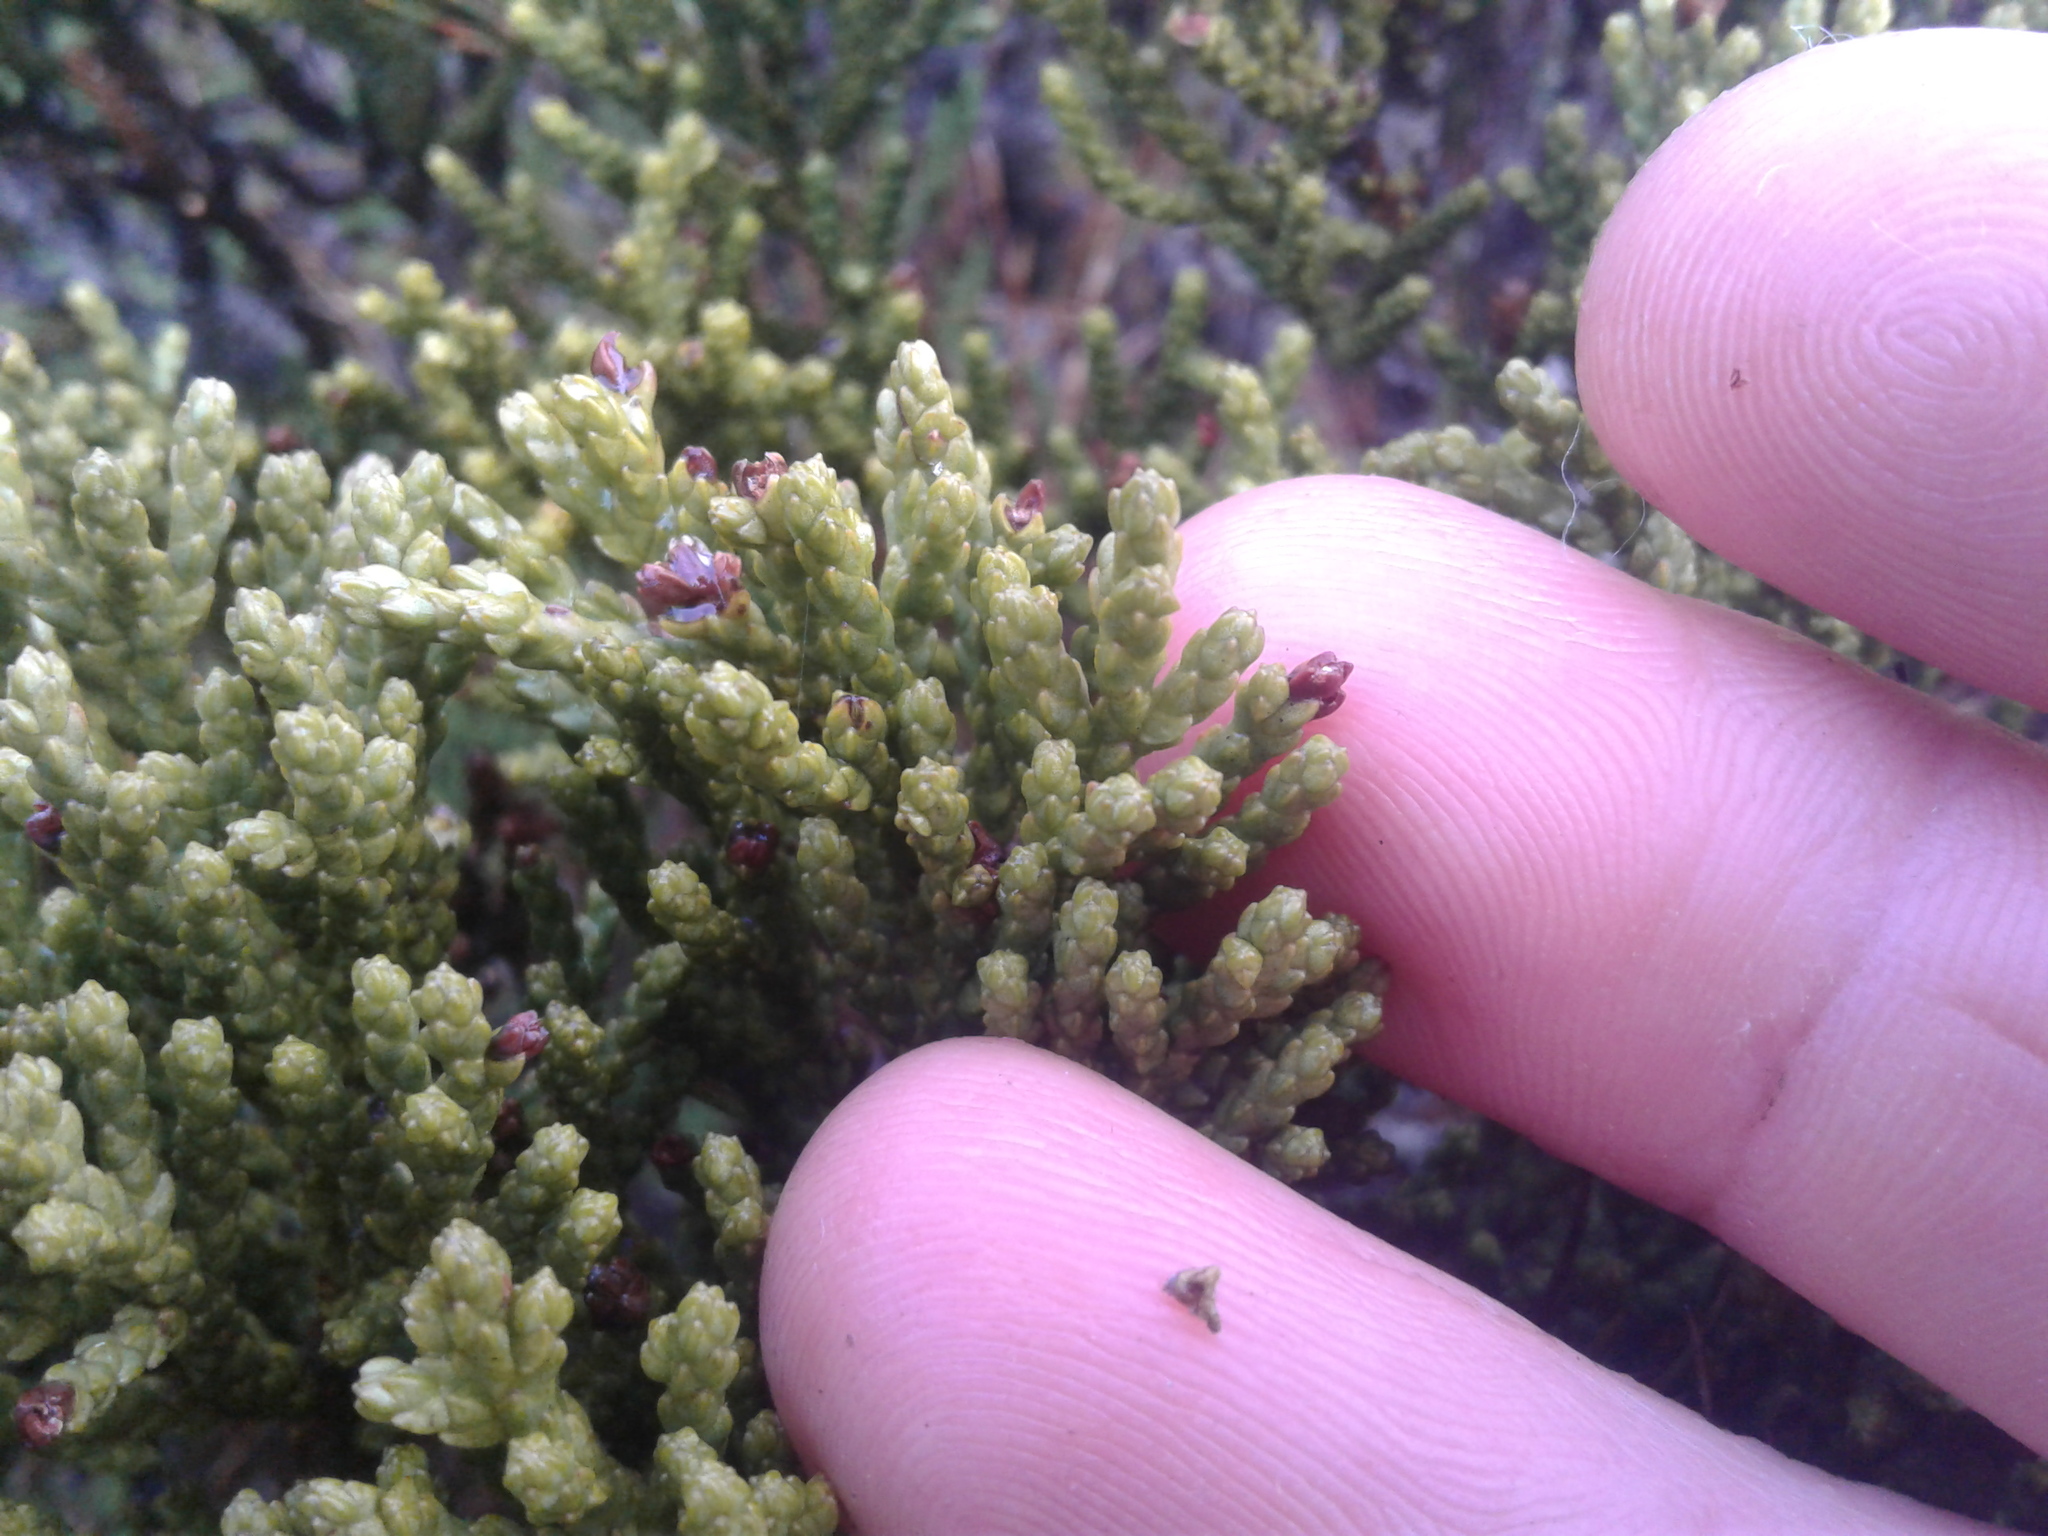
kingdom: Plantae
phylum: Tracheophyta
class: Pinopsida
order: Pinales
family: Podocarpaceae
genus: Halocarpus
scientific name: Halocarpus bidwillii
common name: Bog pine
